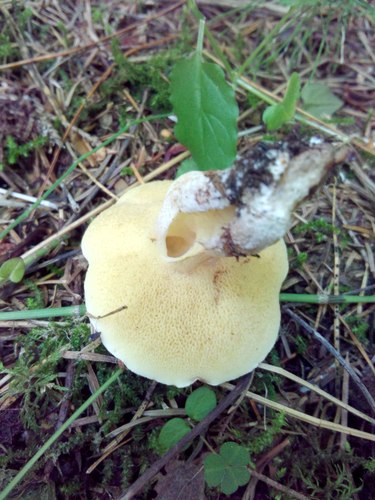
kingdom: Fungi
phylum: Basidiomycota
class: Agaricomycetes
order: Boletales
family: Suillaceae
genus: Suillus
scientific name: Suillus placidus
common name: Slippery white bolete
